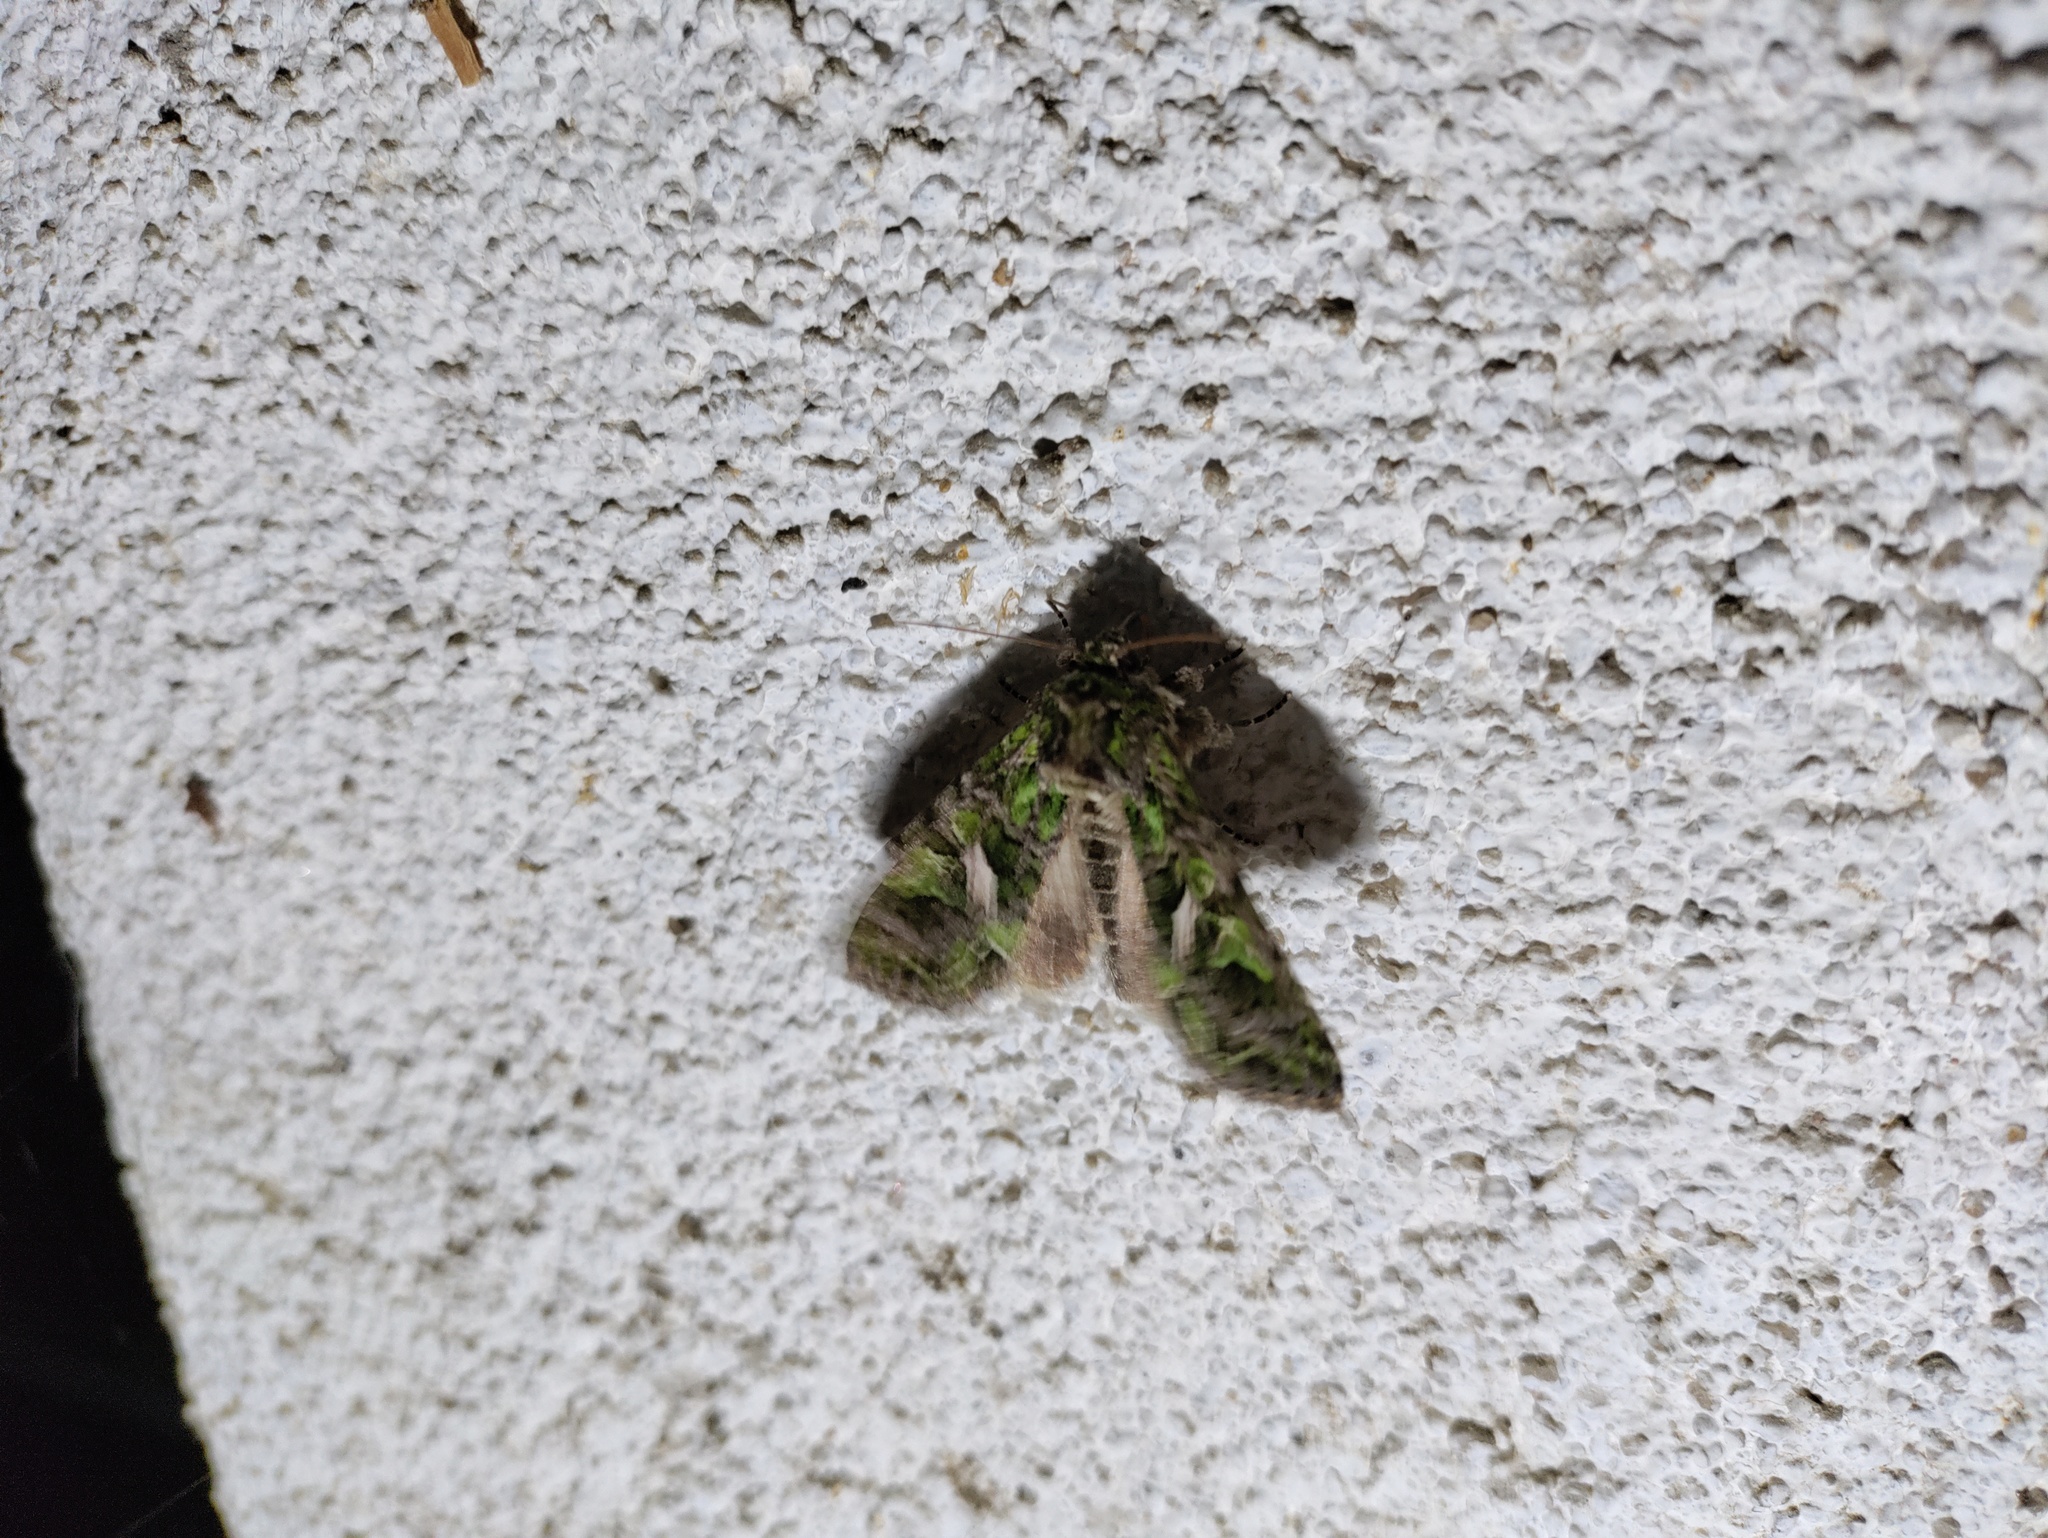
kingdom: Animalia
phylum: Arthropoda
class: Insecta
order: Lepidoptera
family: Noctuidae
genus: Trachea
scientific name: Trachea atriplicis
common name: Orache moth
